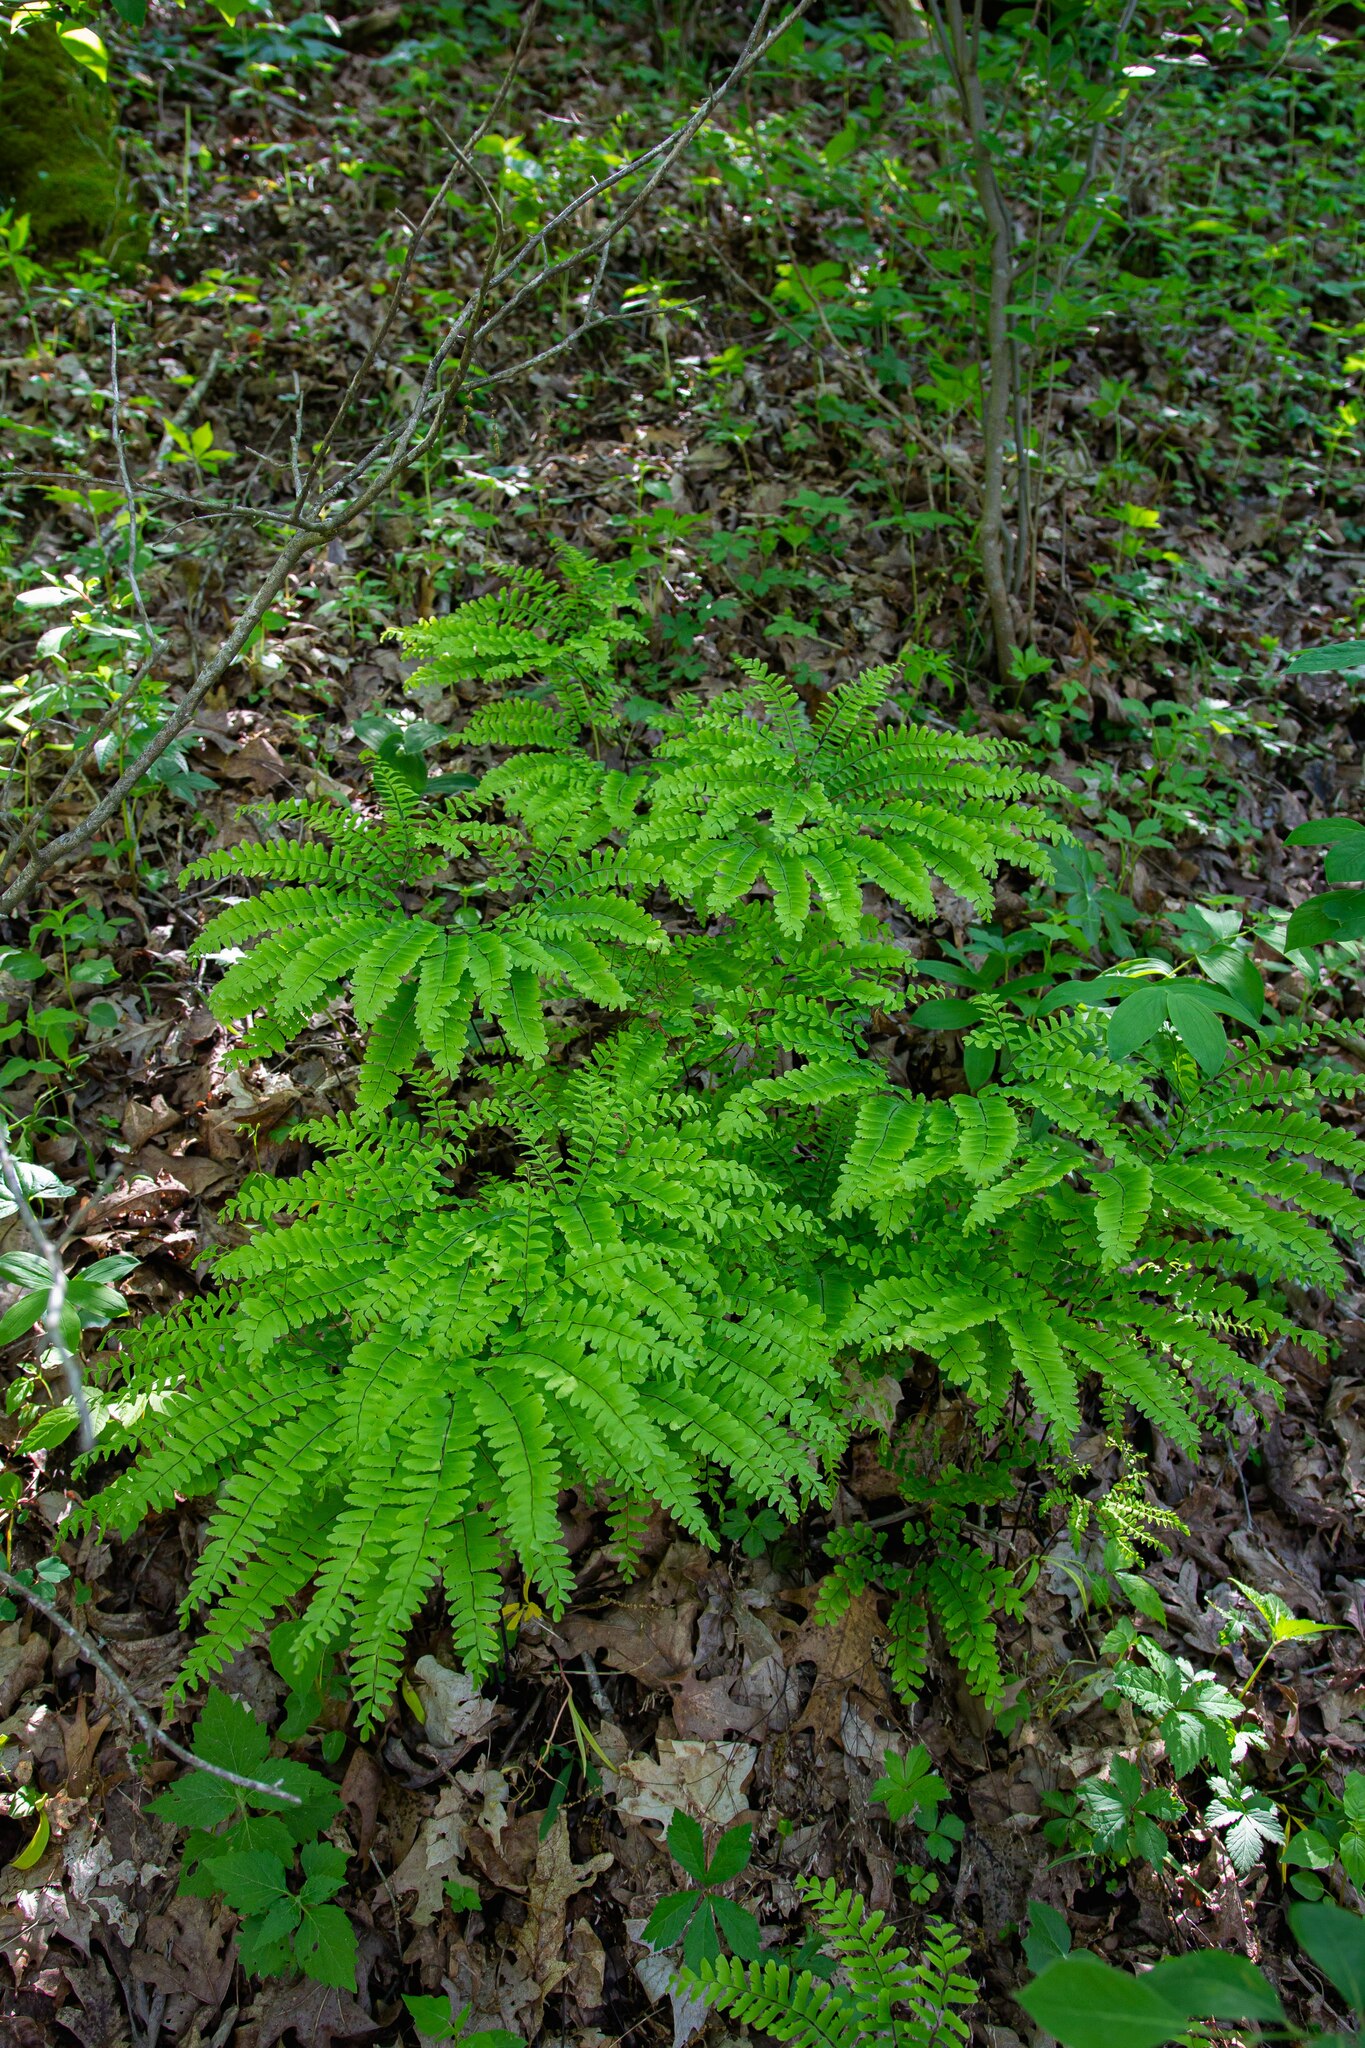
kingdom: Plantae
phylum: Tracheophyta
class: Polypodiopsida
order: Polypodiales
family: Pteridaceae
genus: Adiantum
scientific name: Adiantum pedatum
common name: Five-finger fern
